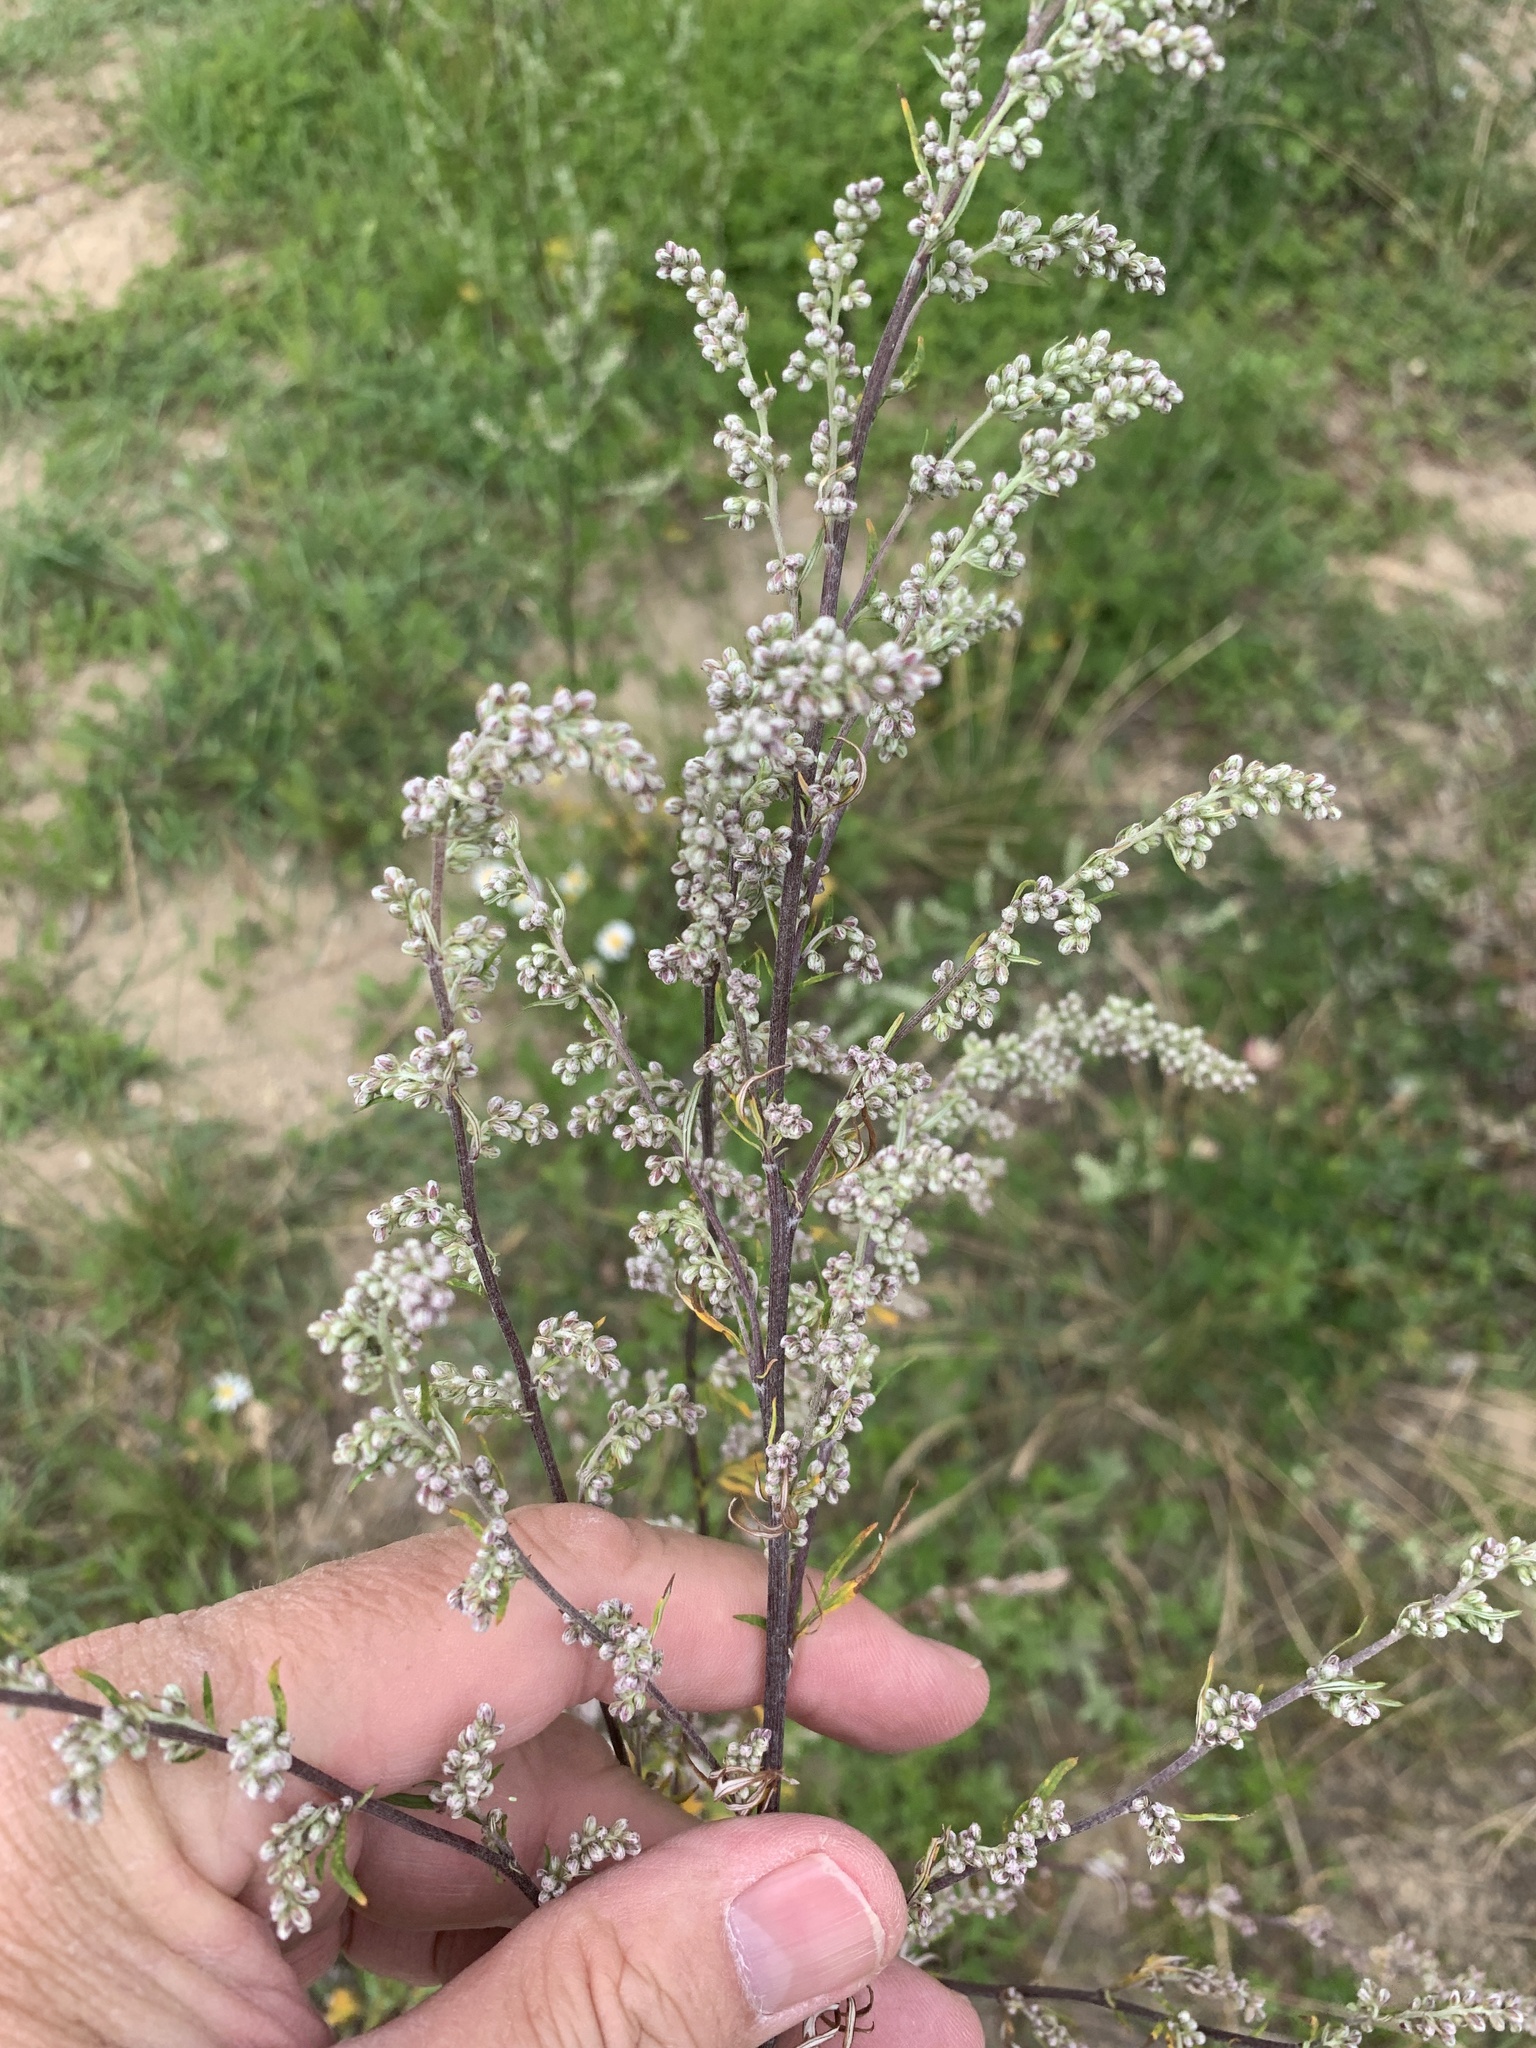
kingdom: Plantae
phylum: Tracheophyta
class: Magnoliopsida
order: Asterales
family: Asteraceae
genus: Artemisia
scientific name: Artemisia vulgaris
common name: Mugwort
